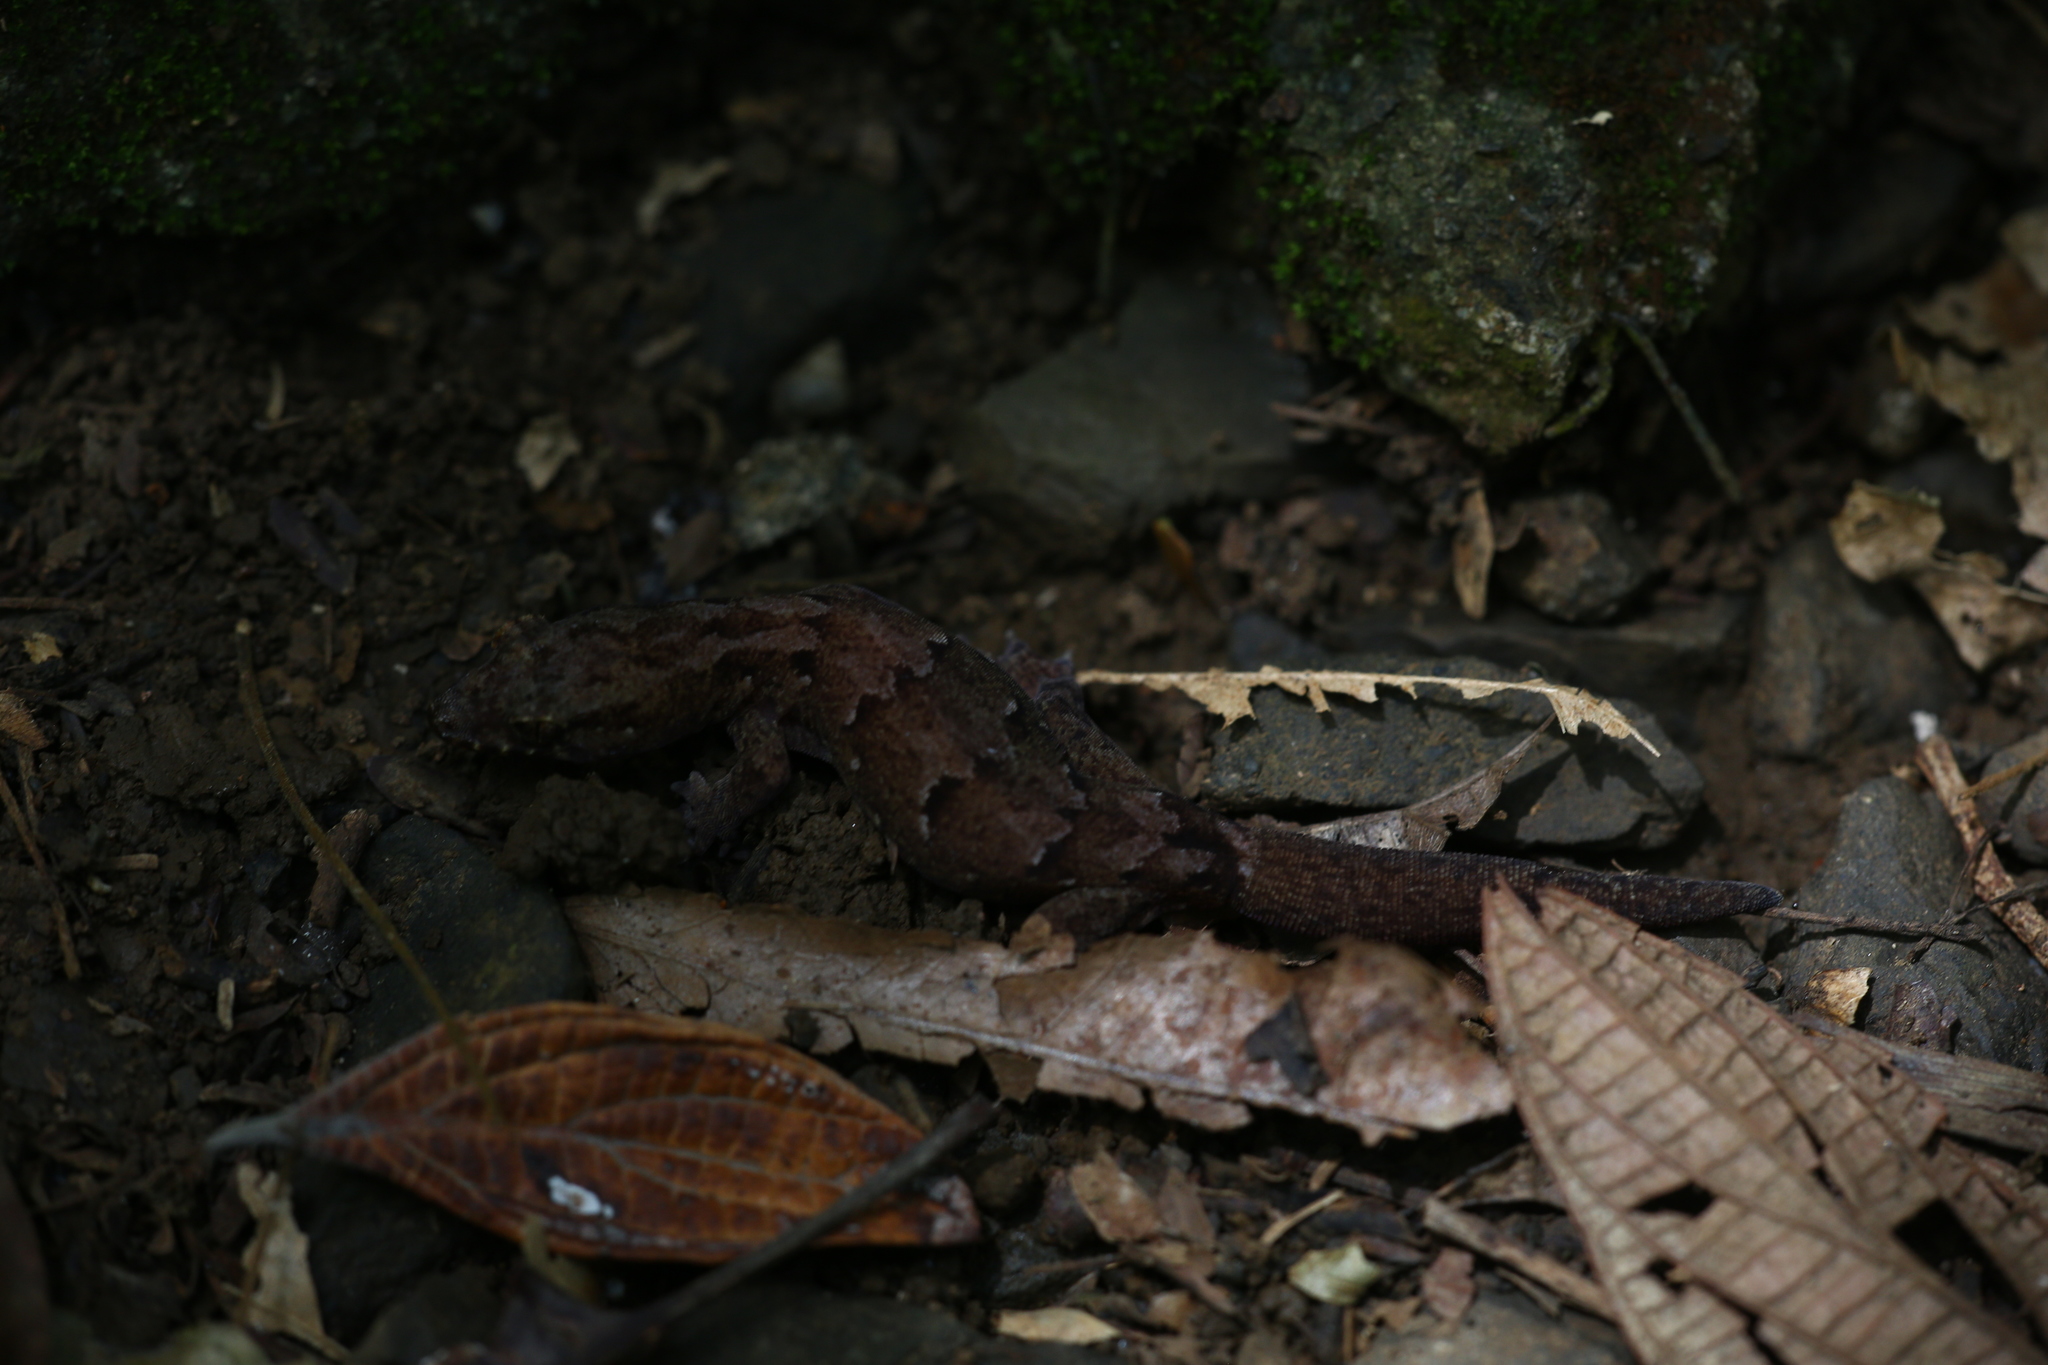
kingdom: Animalia
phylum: Chordata
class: Squamata
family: Diplodactylidae
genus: Bavayia
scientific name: Bavayia sauvagii
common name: Sauvage's new caledonian gecko
